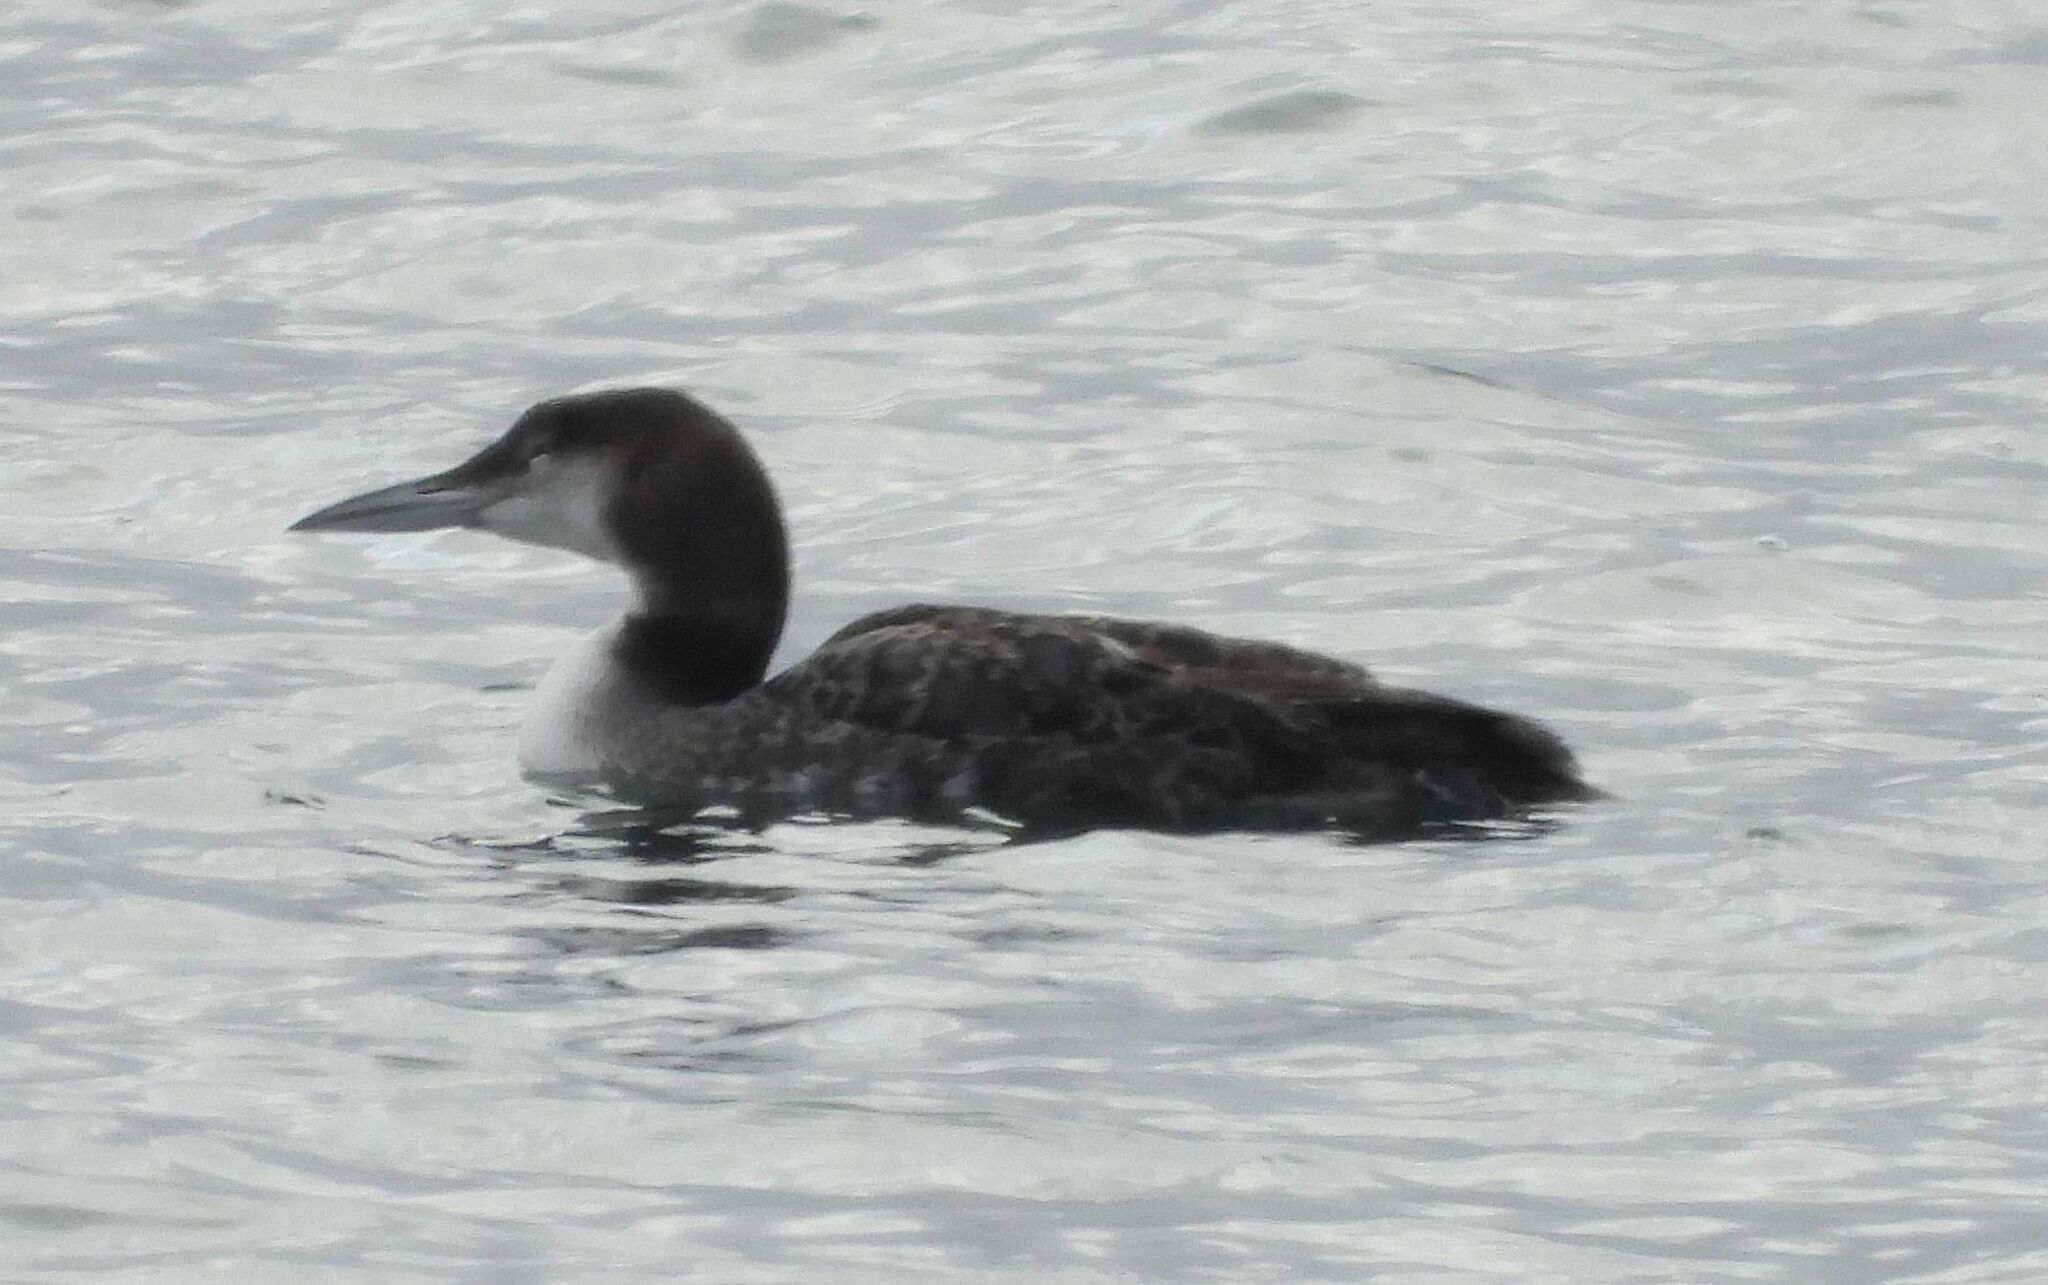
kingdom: Animalia
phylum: Chordata
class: Aves
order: Gaviiformes
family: Gaviidae
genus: Gavia
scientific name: Gavia immer
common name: Common loon
